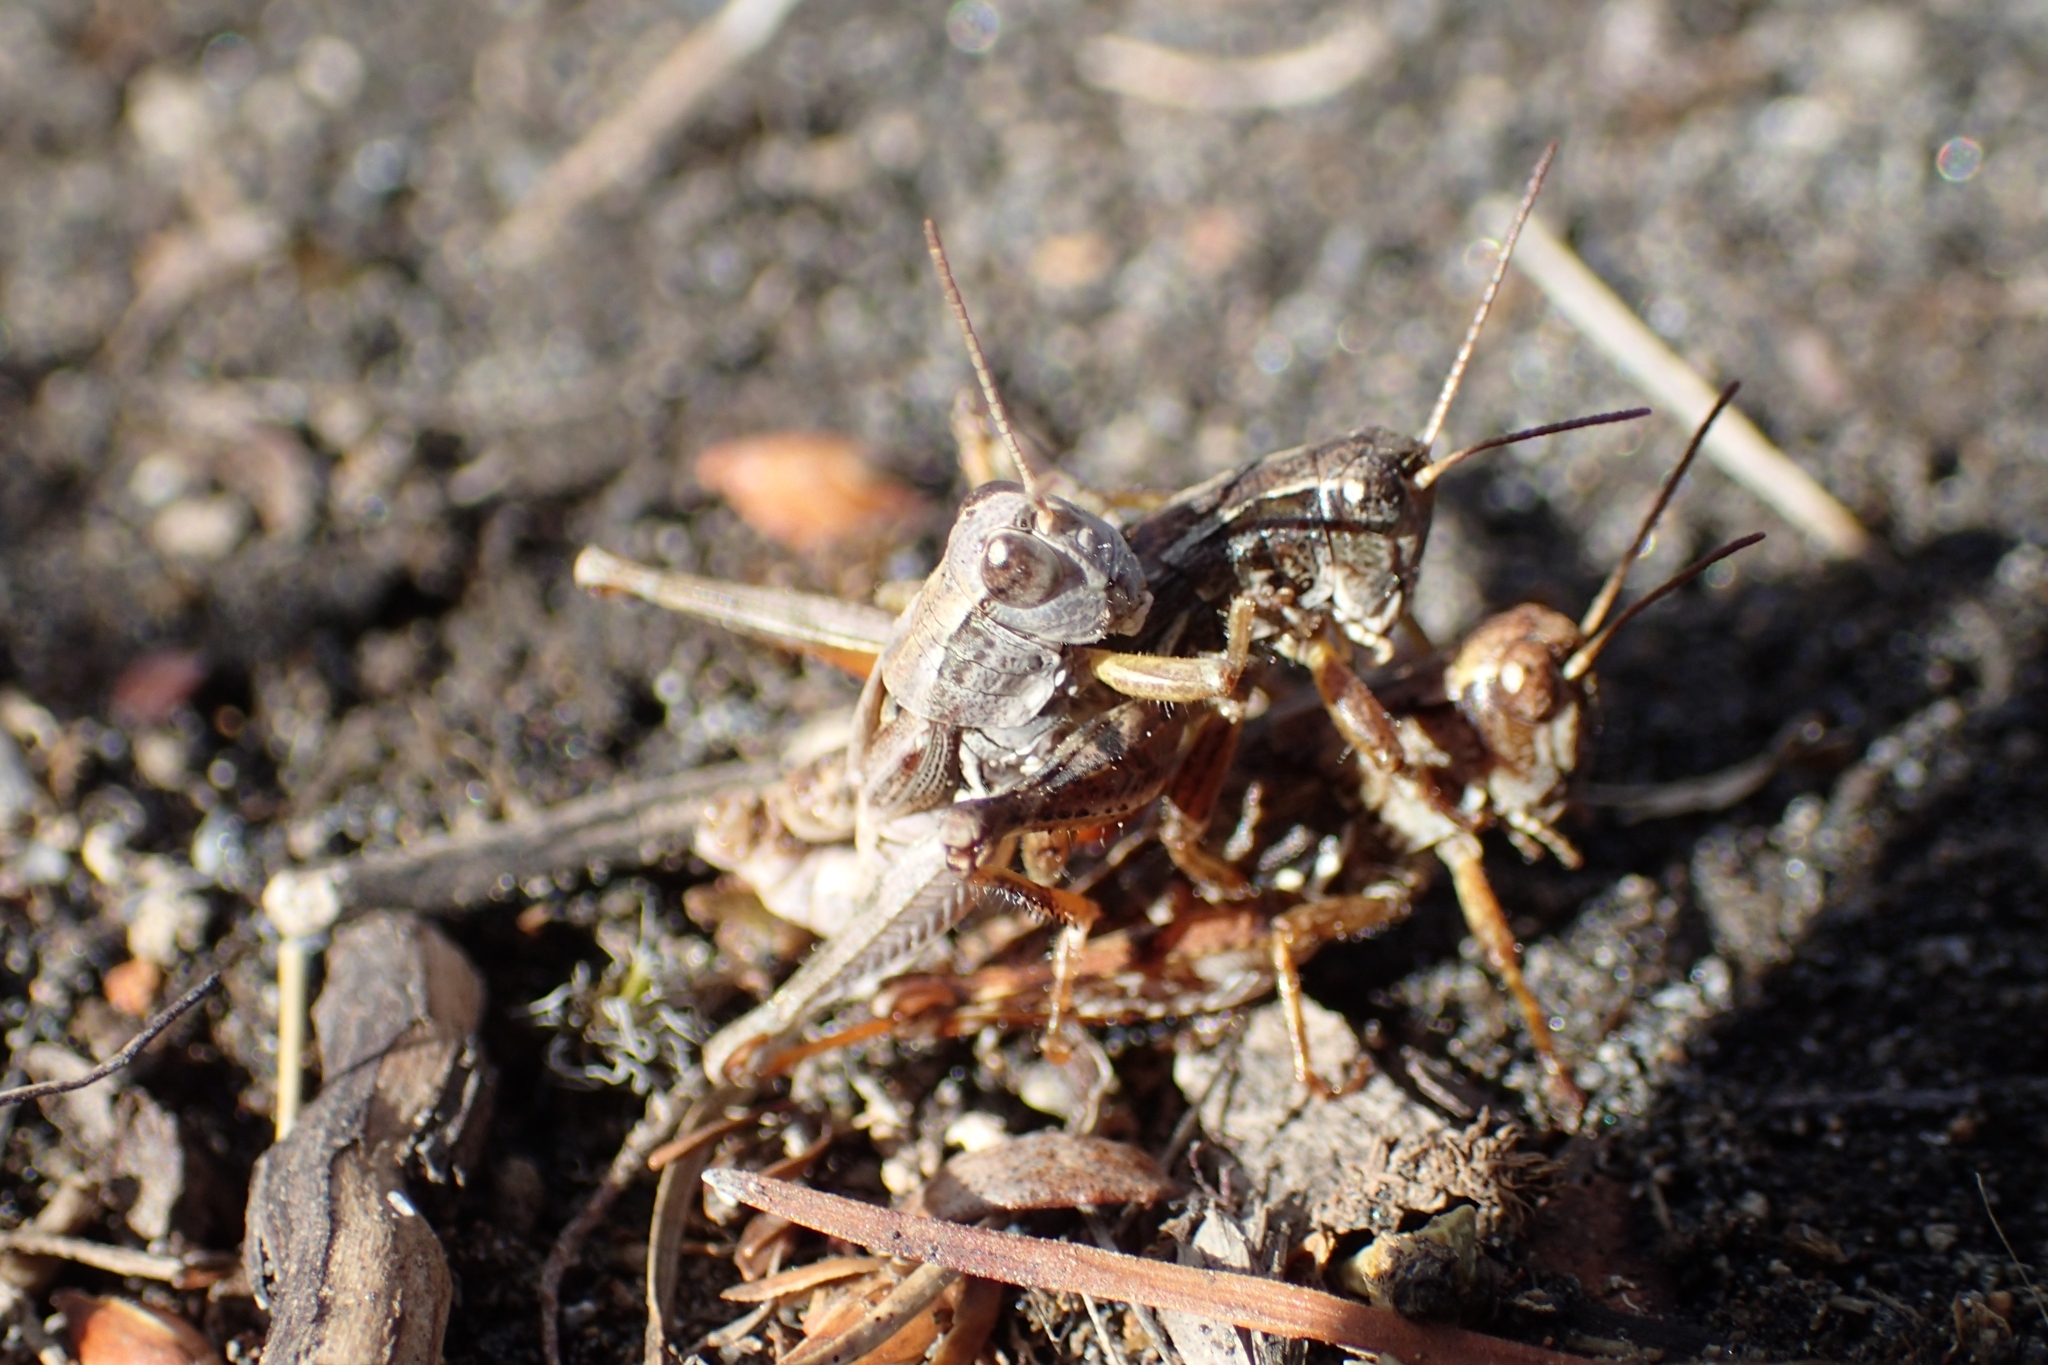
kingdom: Animalia
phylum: Arthropoda
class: Insecta
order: Orthoptera
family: Acrididae
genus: Phaulacridium
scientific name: Phaulacridium marginale
